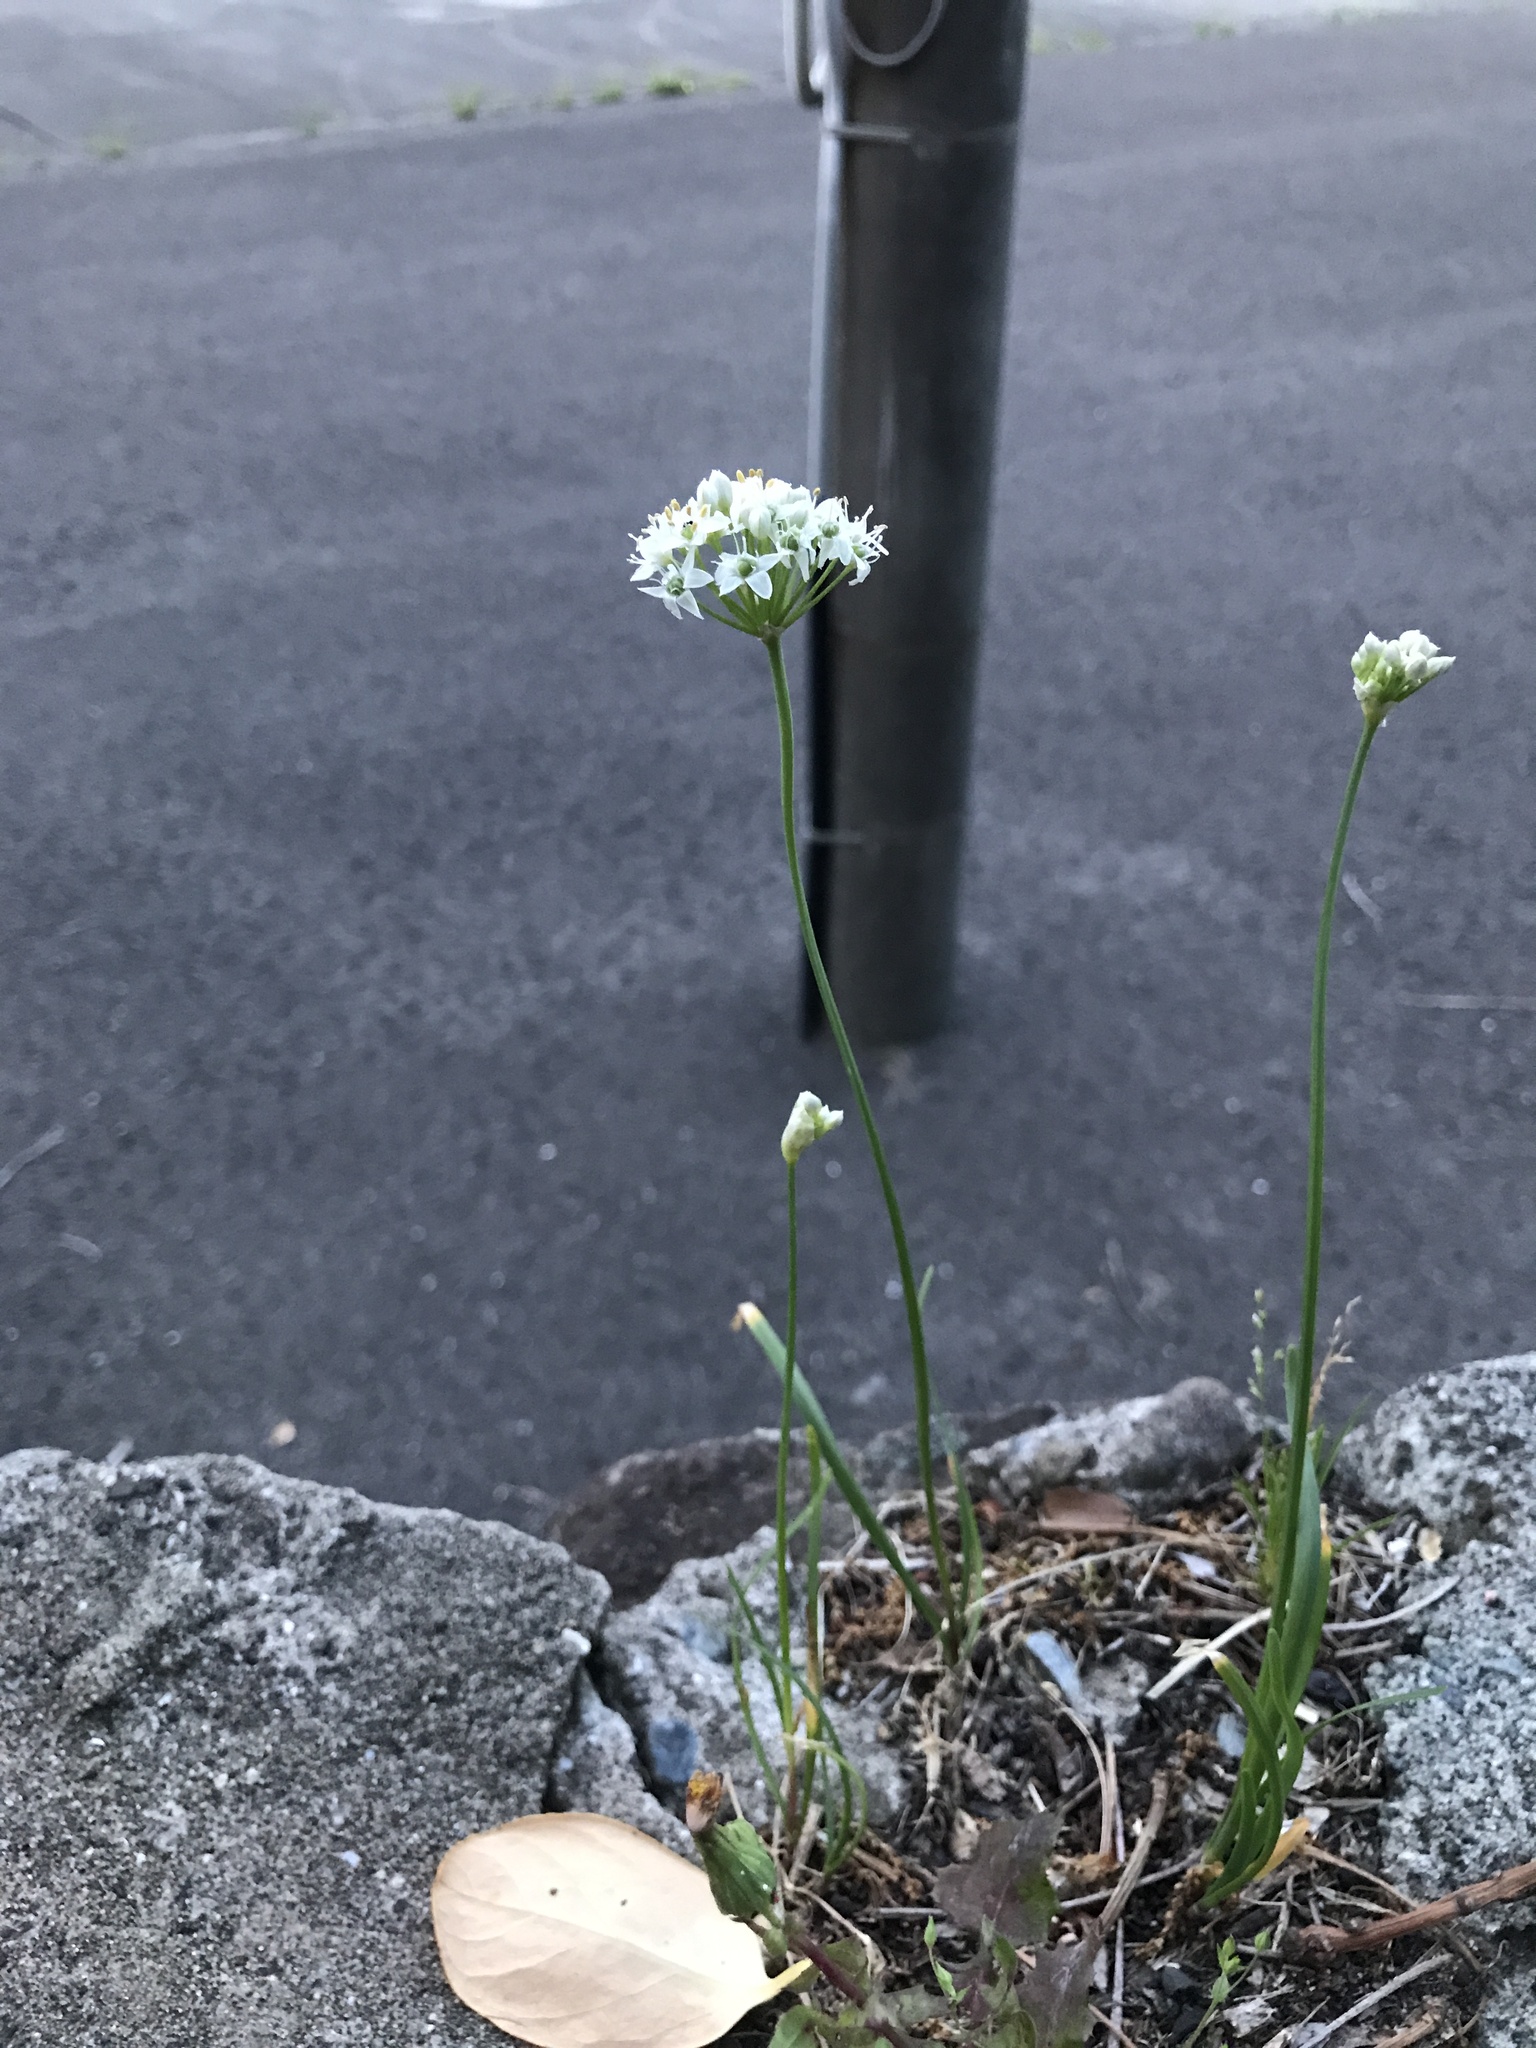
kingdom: Plantae
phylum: Tracheophyta
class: Liliopsida
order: Asparagales
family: Amaryllidaceae
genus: Allium
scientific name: Allium tuberosum
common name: Chinese chives
